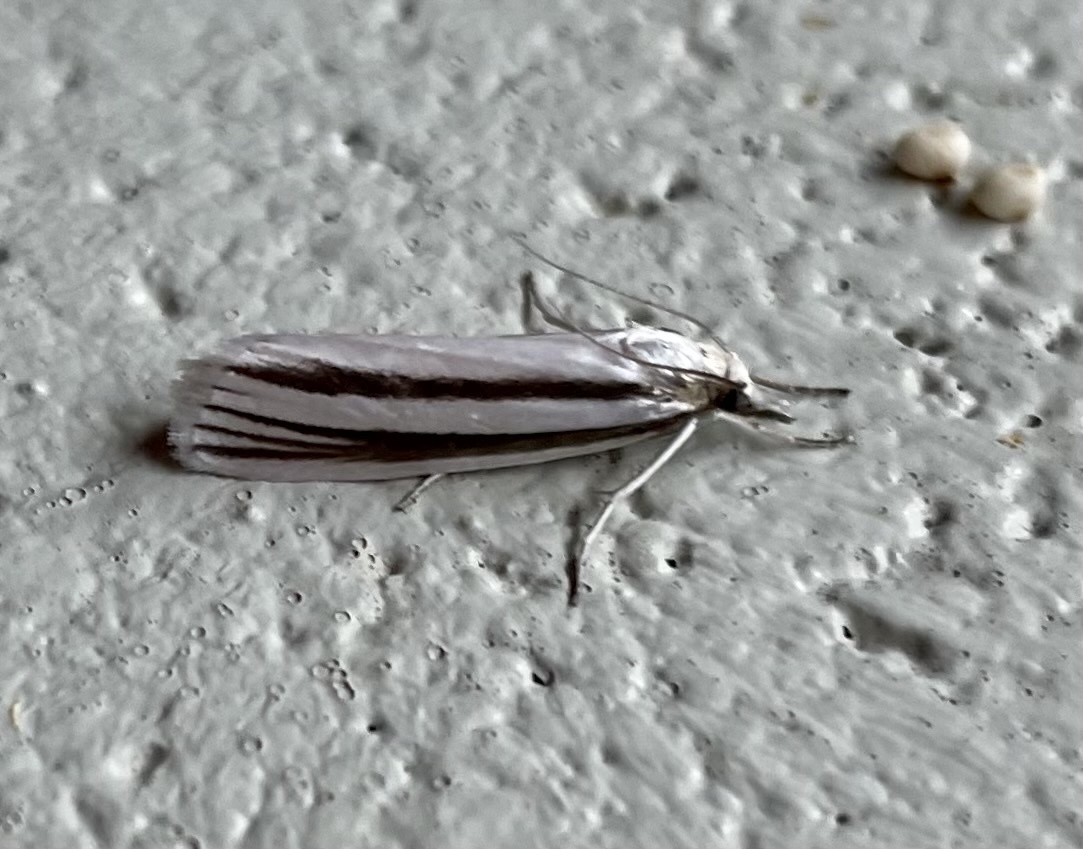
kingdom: Animalia
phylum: Arthropoda
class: Insecta
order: Lepidoptera
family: Crambidae
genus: Ubida
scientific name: Ubida holomochla
